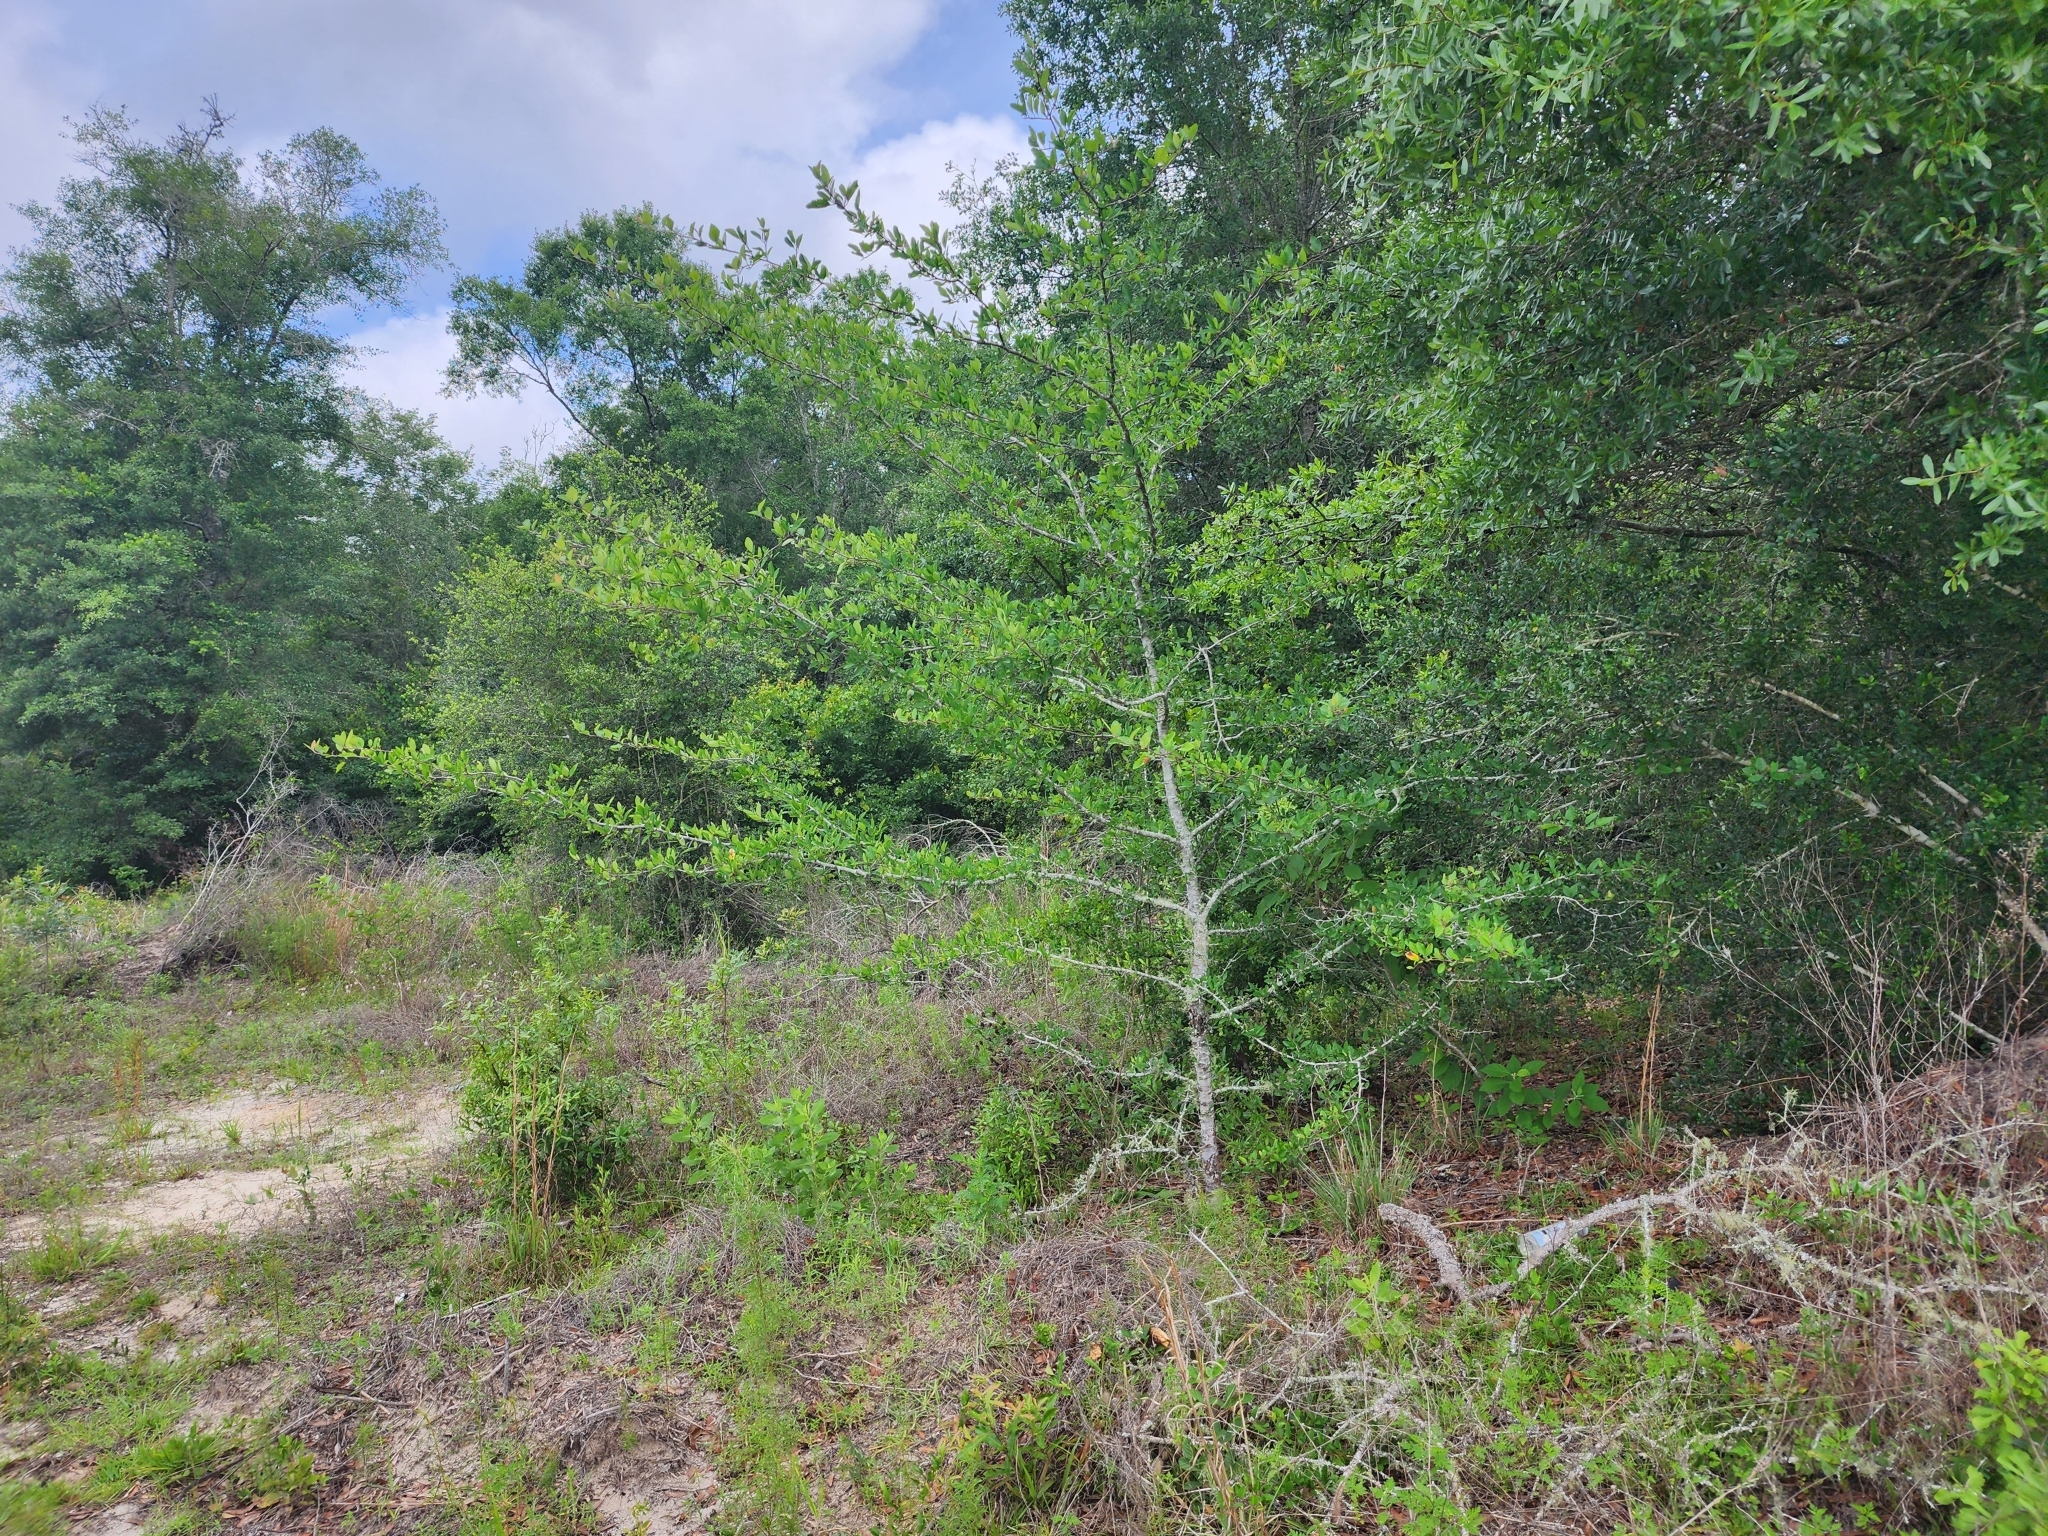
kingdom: Plantae
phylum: Tracheophyta
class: Magnoliopsida
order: Rosales
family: Rosaceae
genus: Malus
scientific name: Malus angustifolia
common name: Southern crab apple
